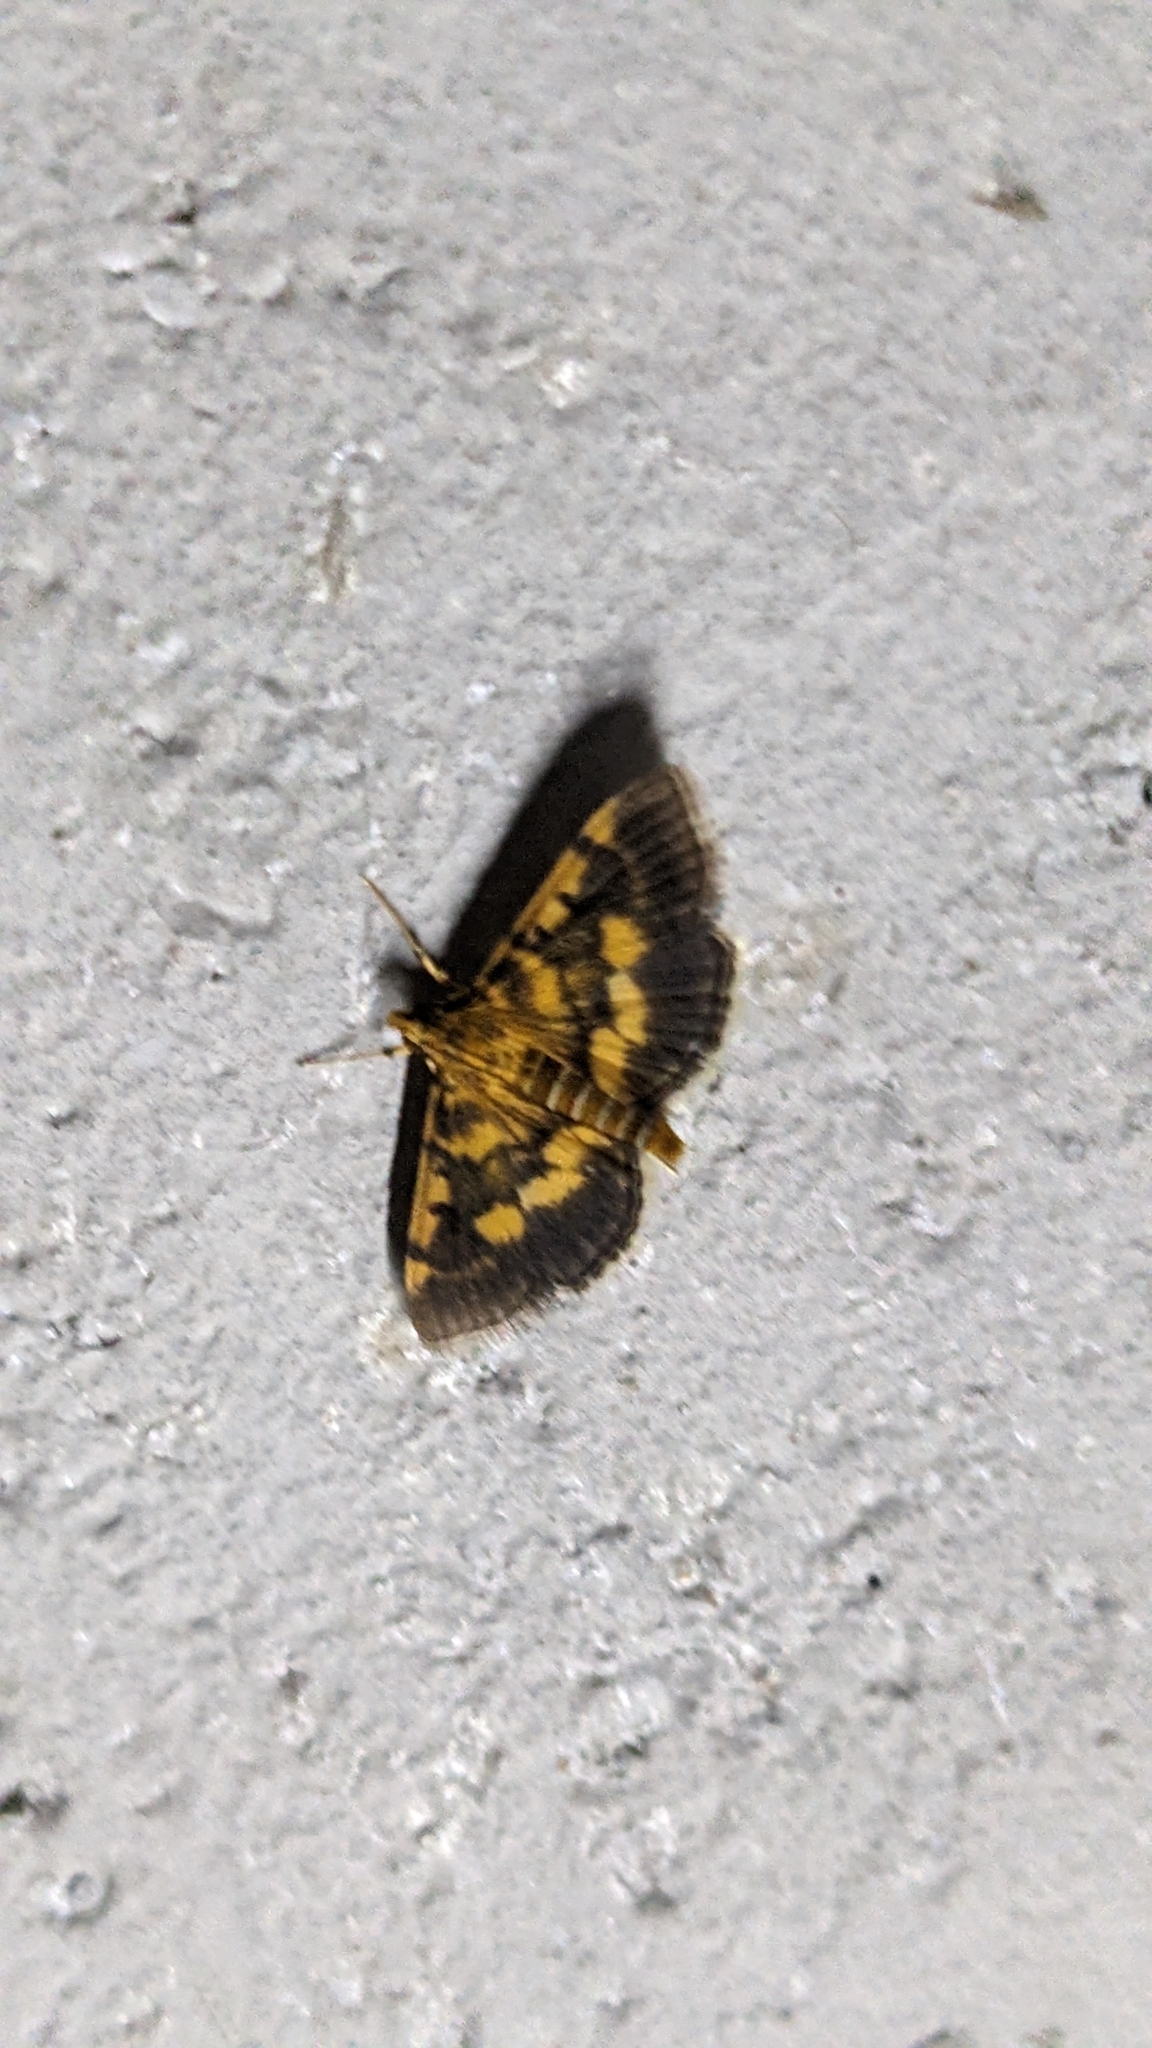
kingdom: Animalia
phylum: Arthropoda
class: Insecta
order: Lepidoptera
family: Crambidae
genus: Omiodes
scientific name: Omiodes diemenalis
